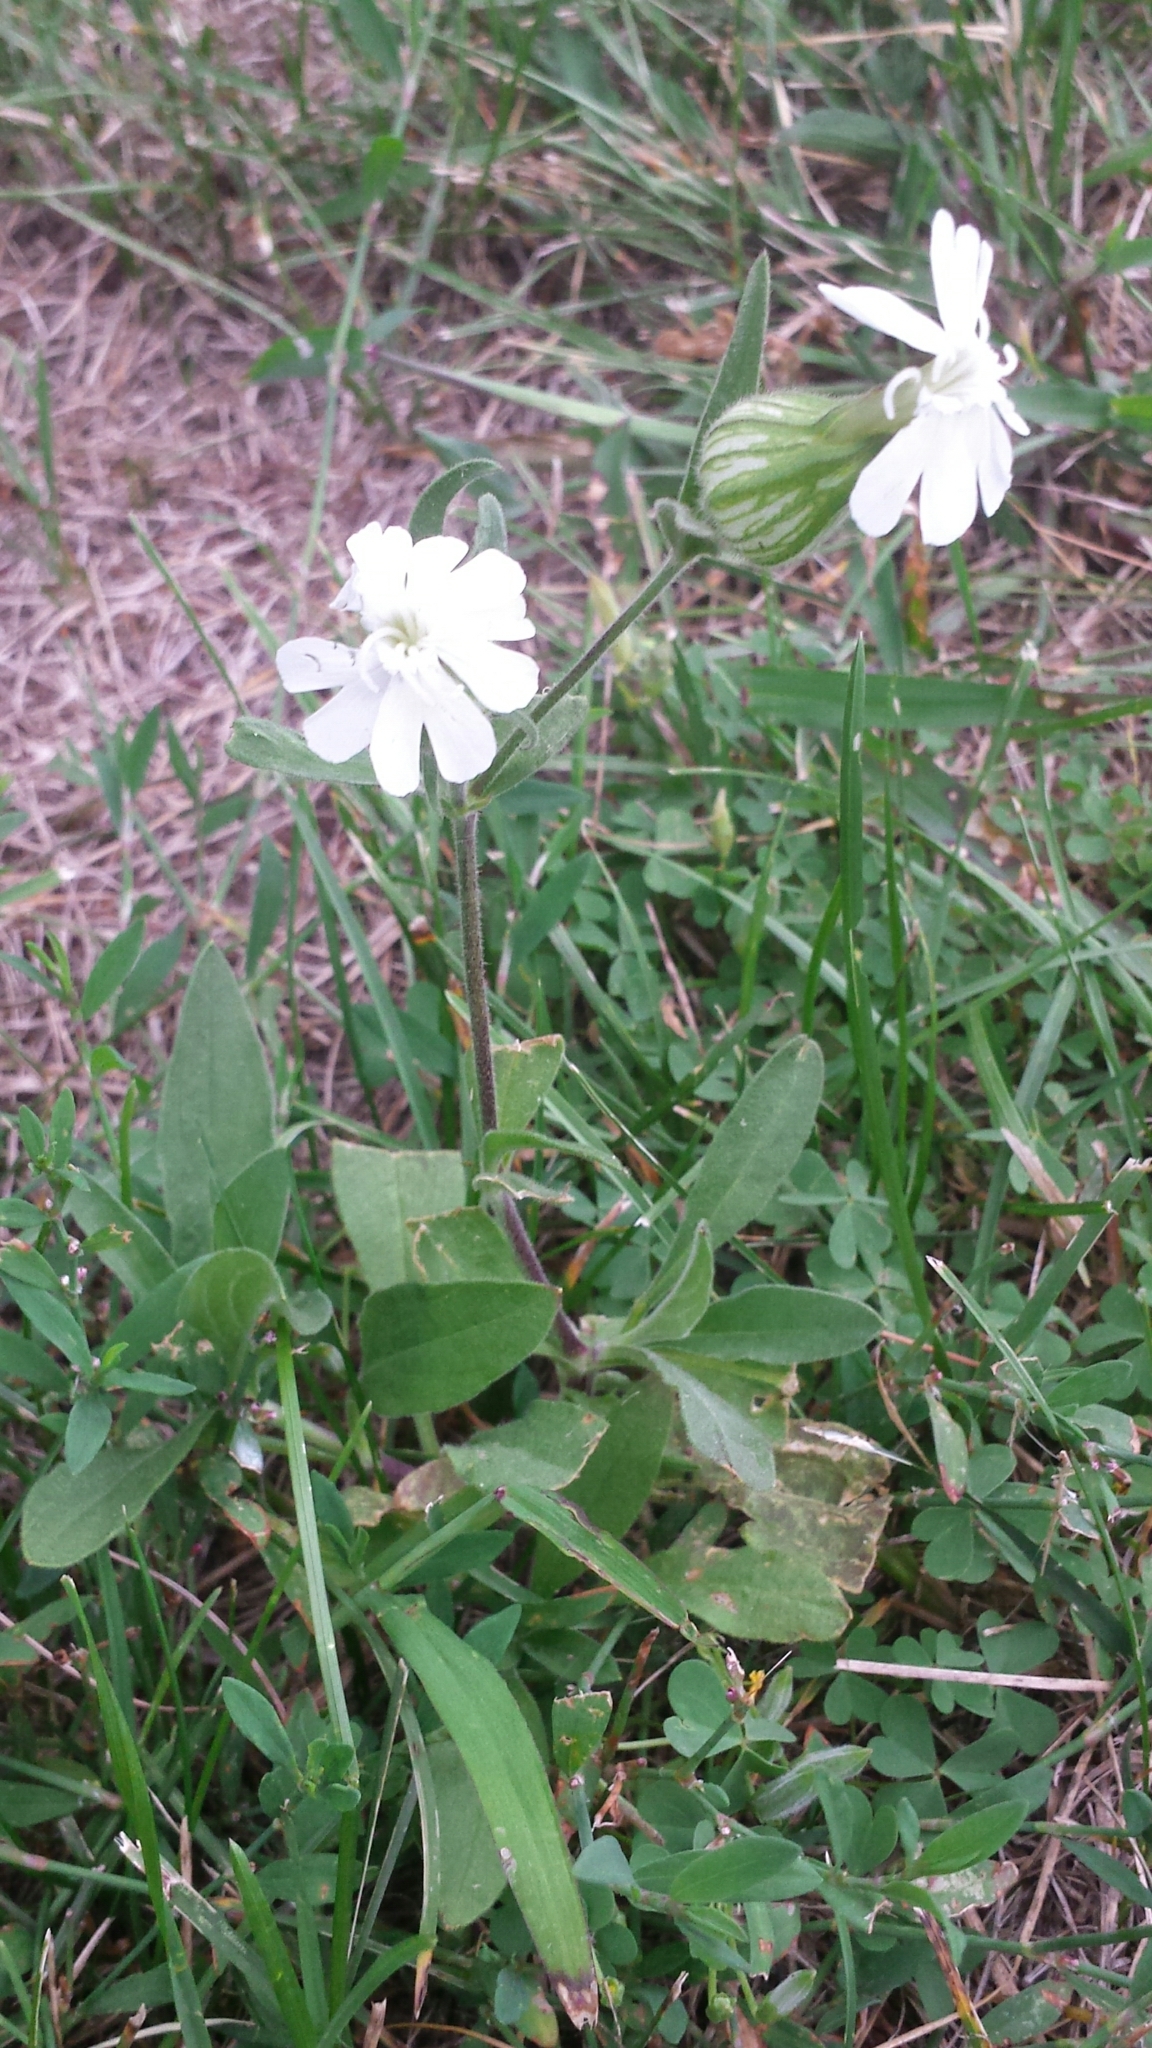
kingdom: Plantae
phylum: Tracheophyta
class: Magnoliopsida
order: Caryophyllales
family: Caryophyllaceae
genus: Silene
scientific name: Silene latifolia
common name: White campion
